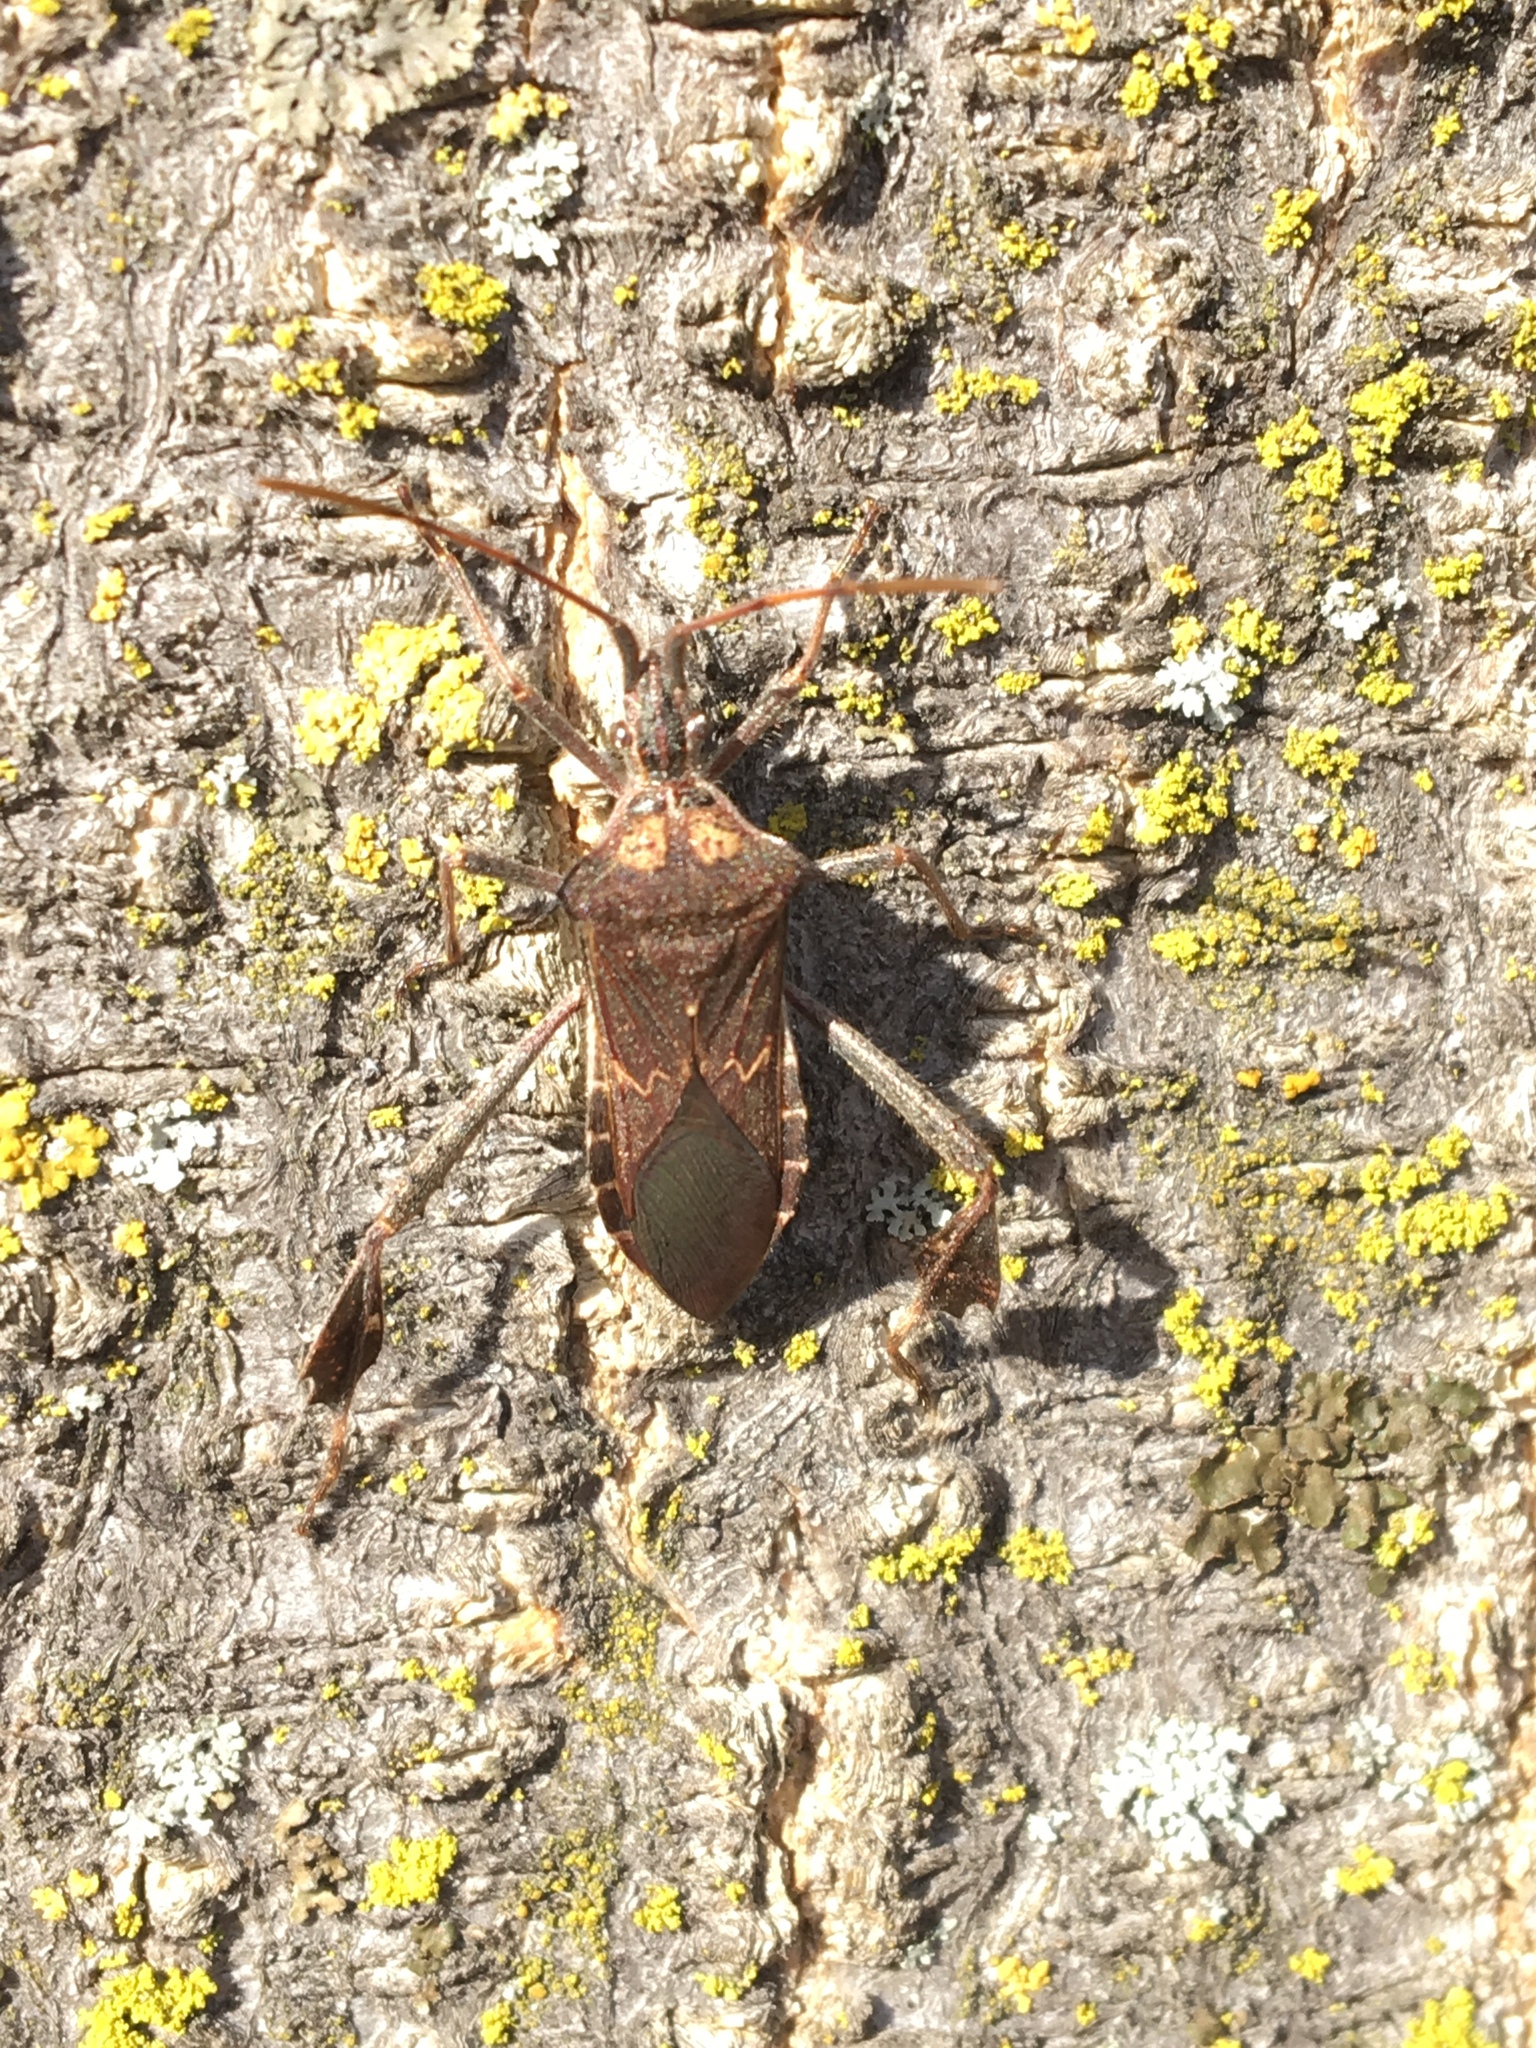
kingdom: Animalia
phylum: Arthropoda
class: Insecta
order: Hemiptera
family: Coreidae
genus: Leptoglossus
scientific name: Leptoglossus zonatus
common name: Large-legged bug
